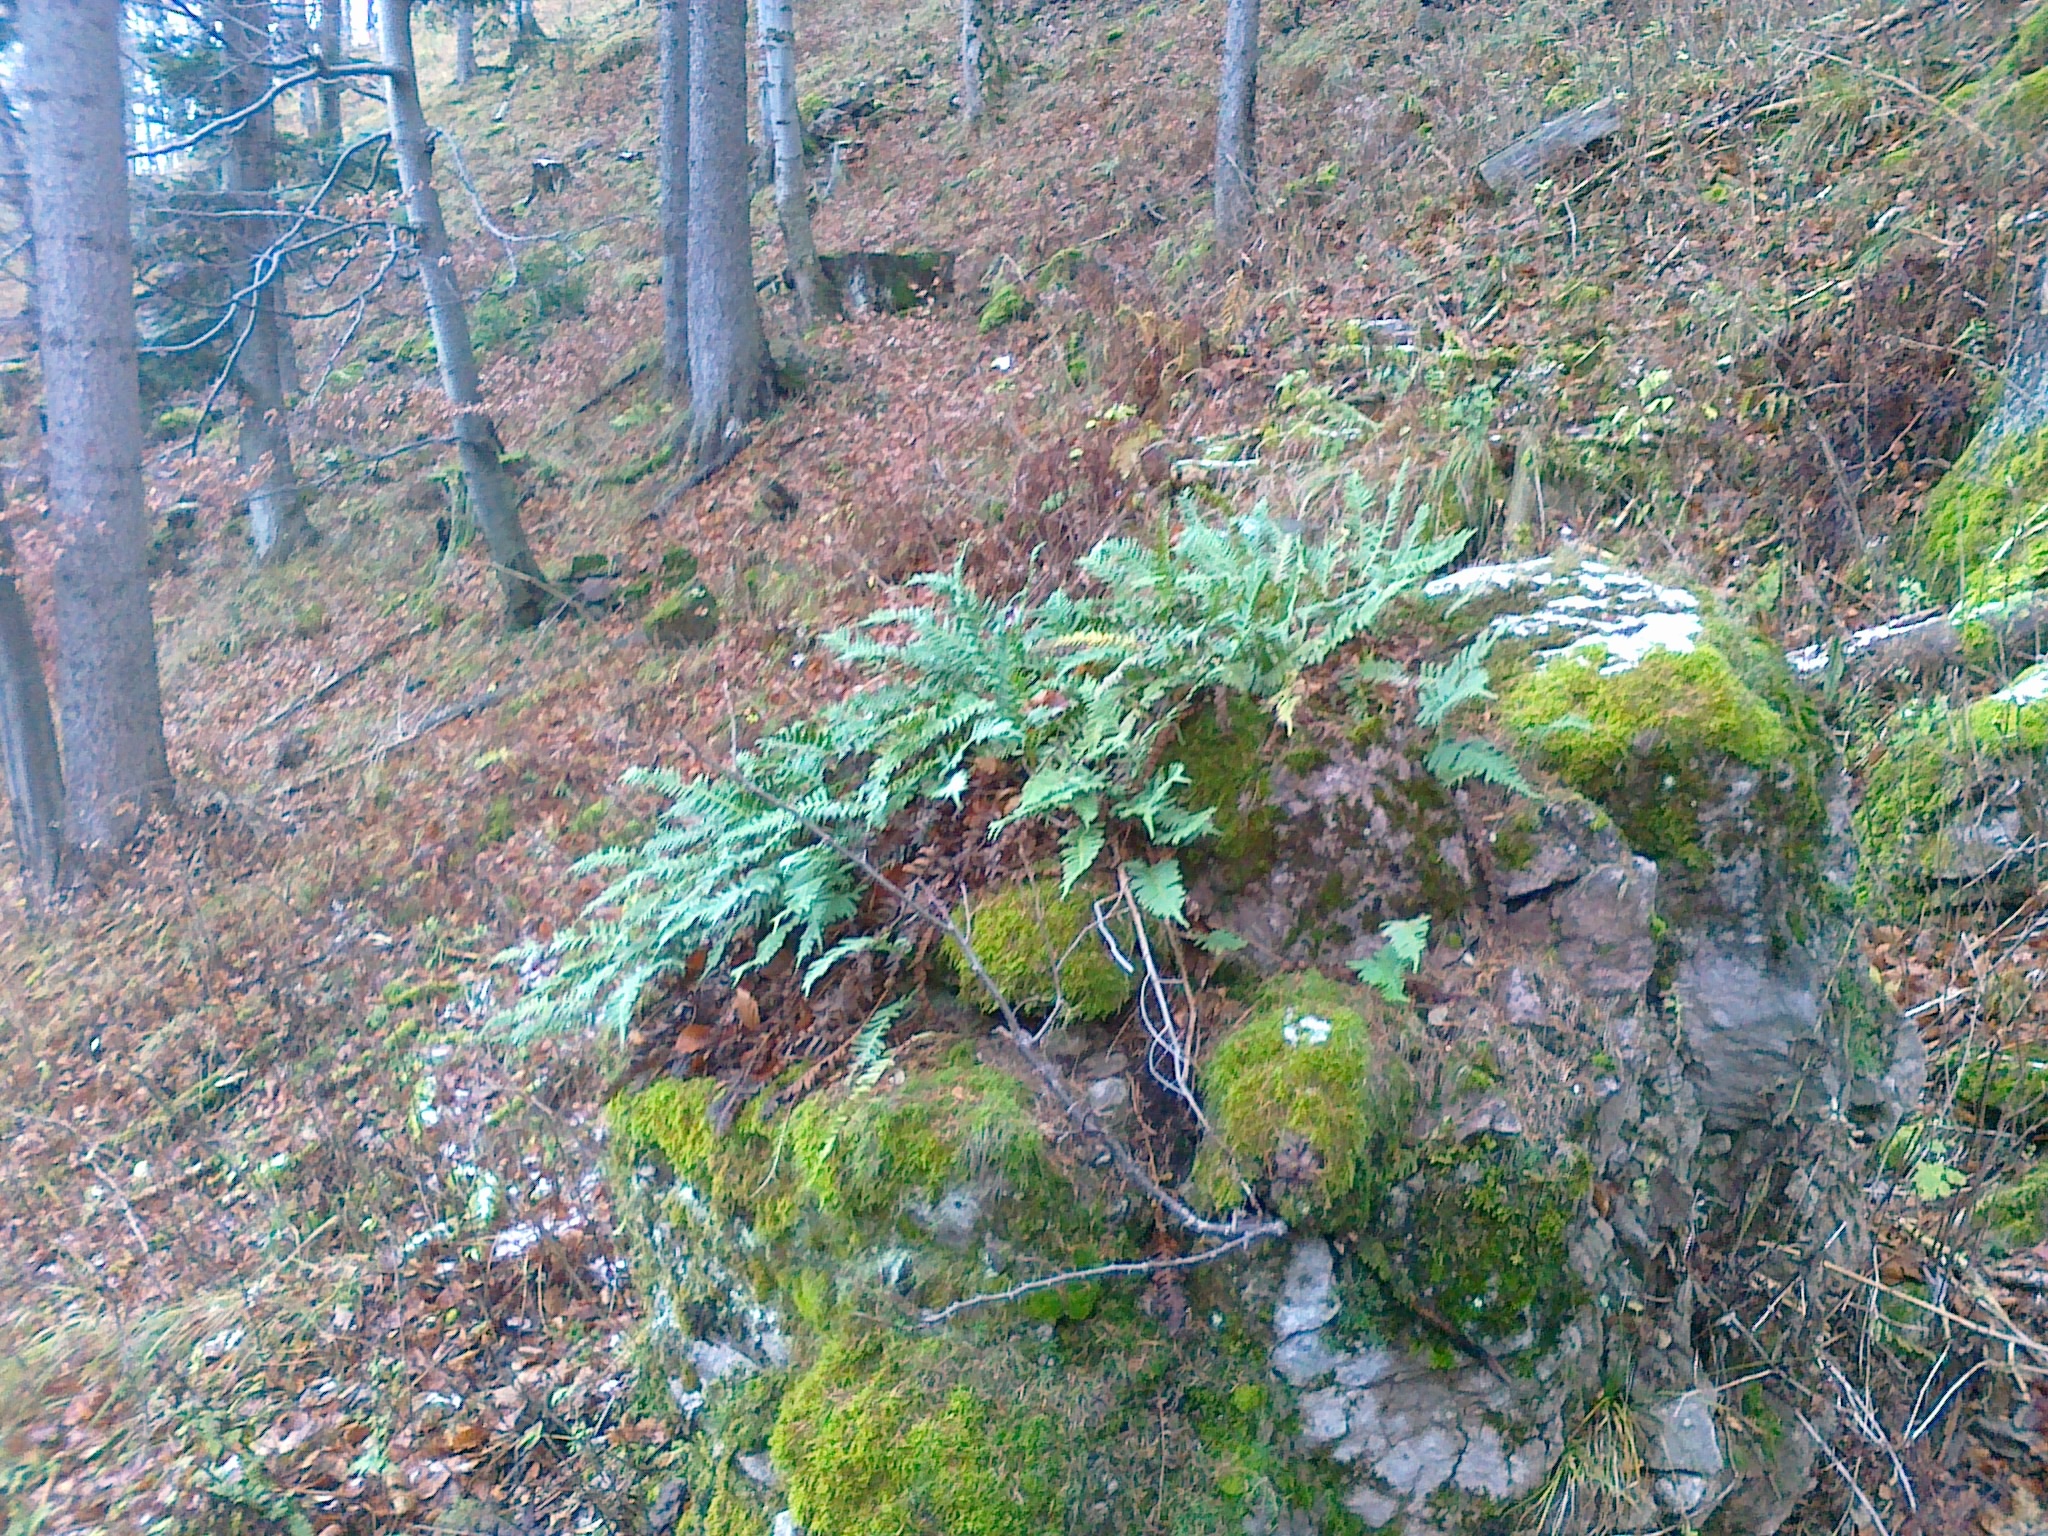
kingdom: Plantae
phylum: Tracheophyta
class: Polypodiopsida
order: Polypodiales
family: Polypodiaceae
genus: Polypodium
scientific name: Polypodium vulgare
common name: Common polypody
